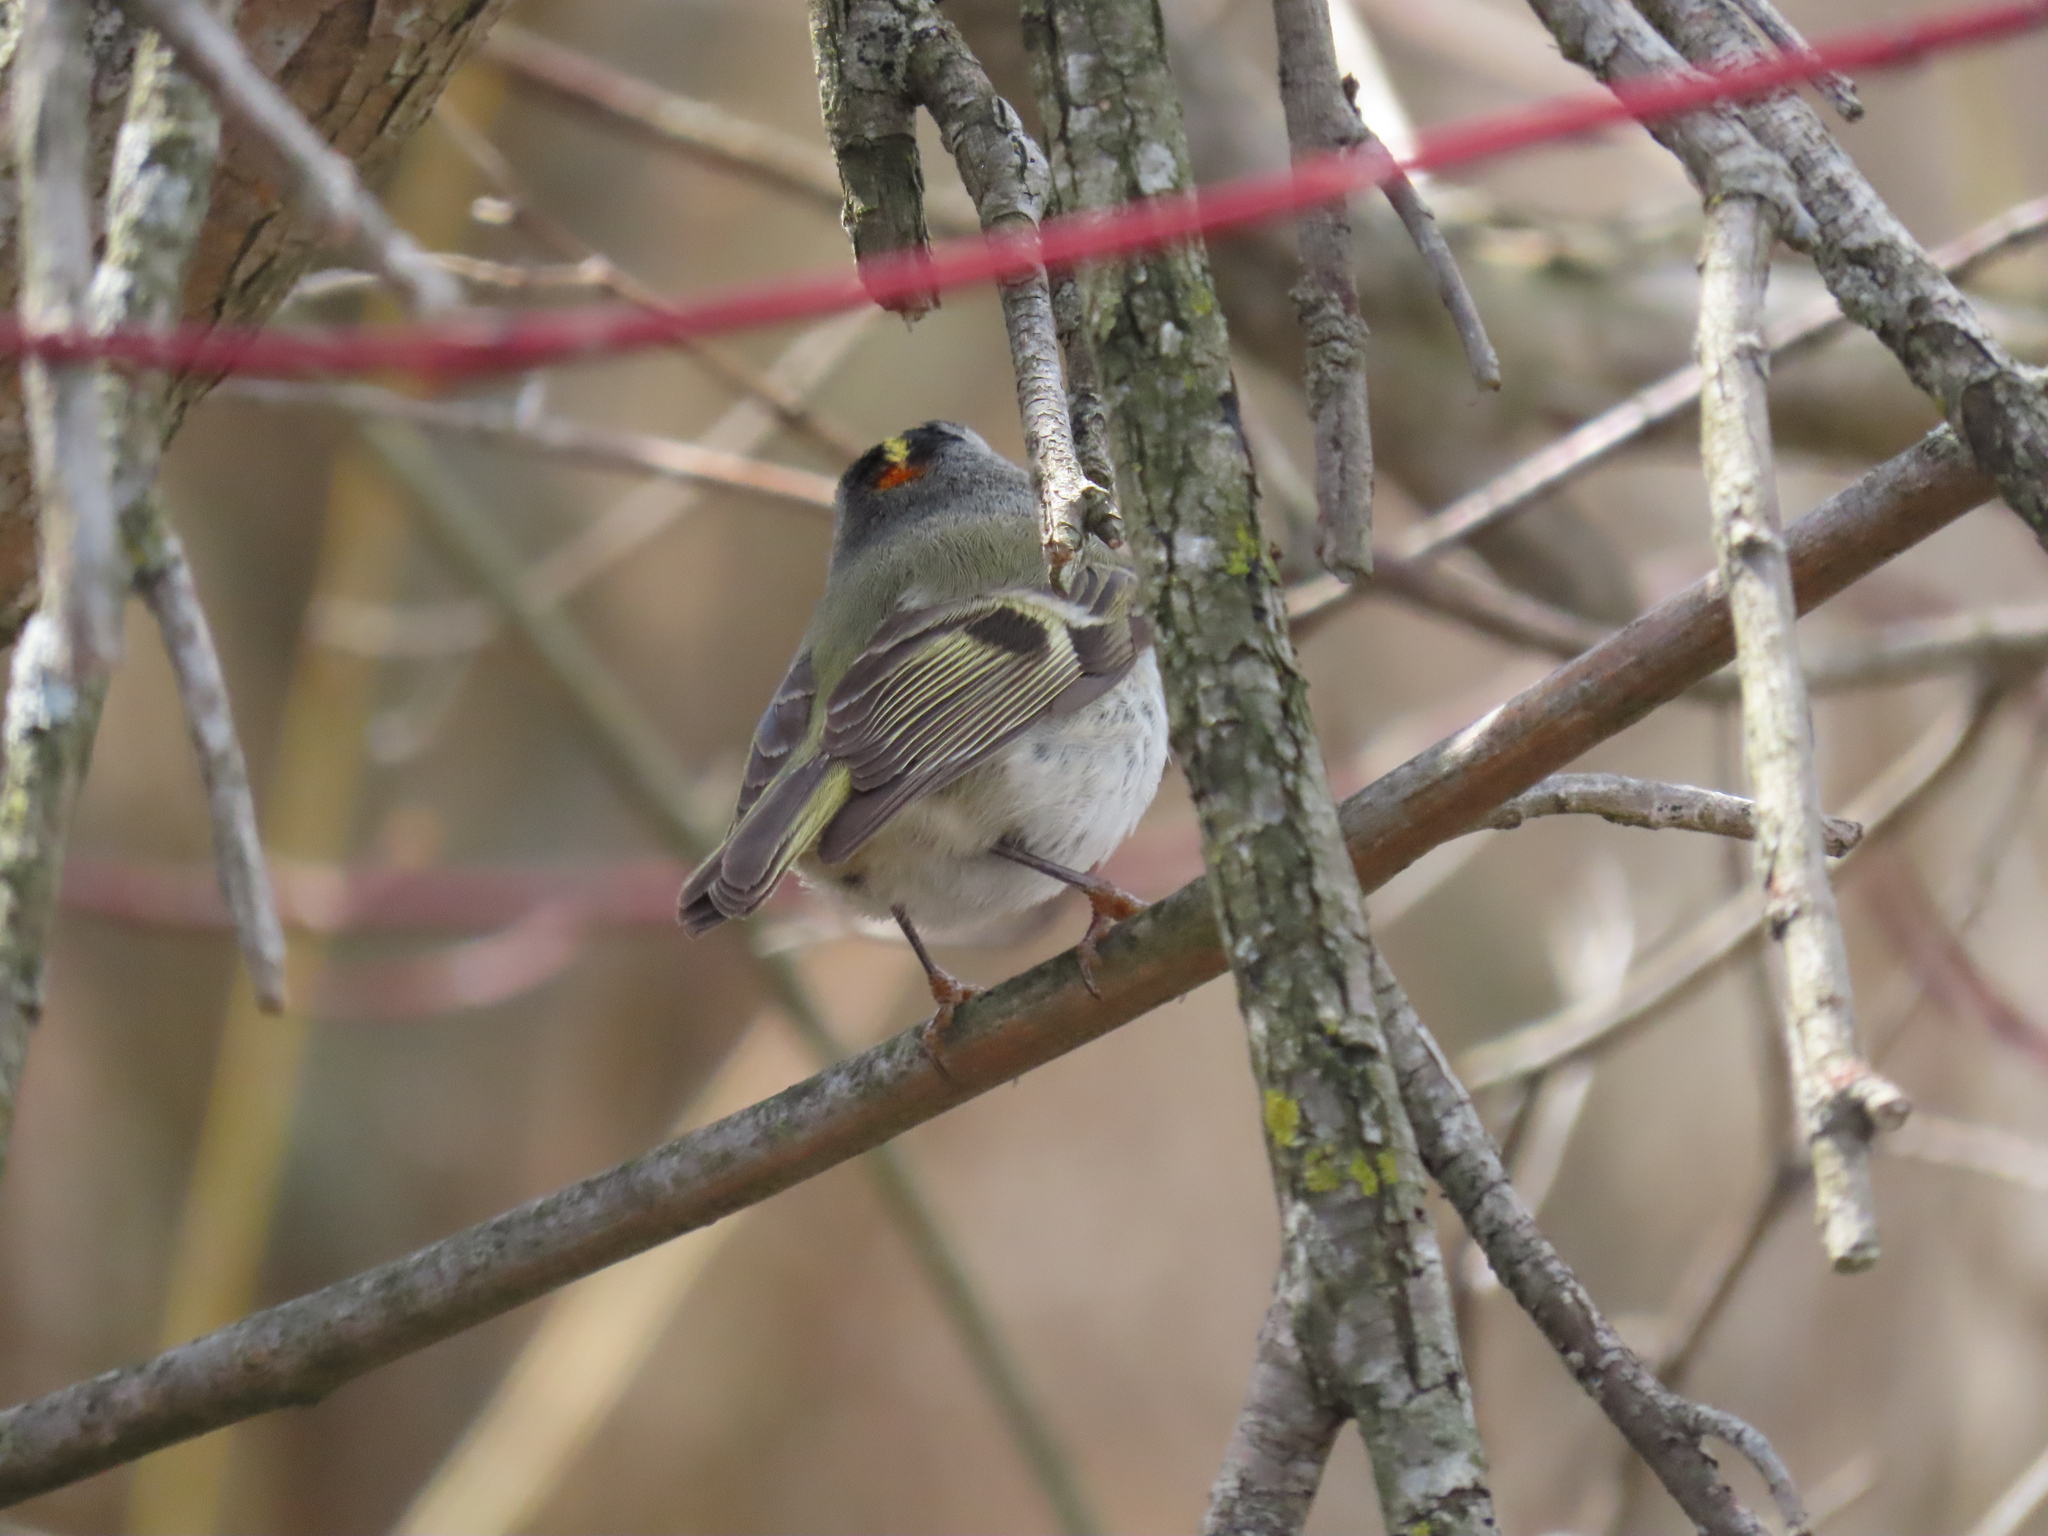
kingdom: Animalia
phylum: Chordata
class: Aves
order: Passeriformes
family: Regulidae
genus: Regulus
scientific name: Regulus satrapa
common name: Golden-crowned kinglet
